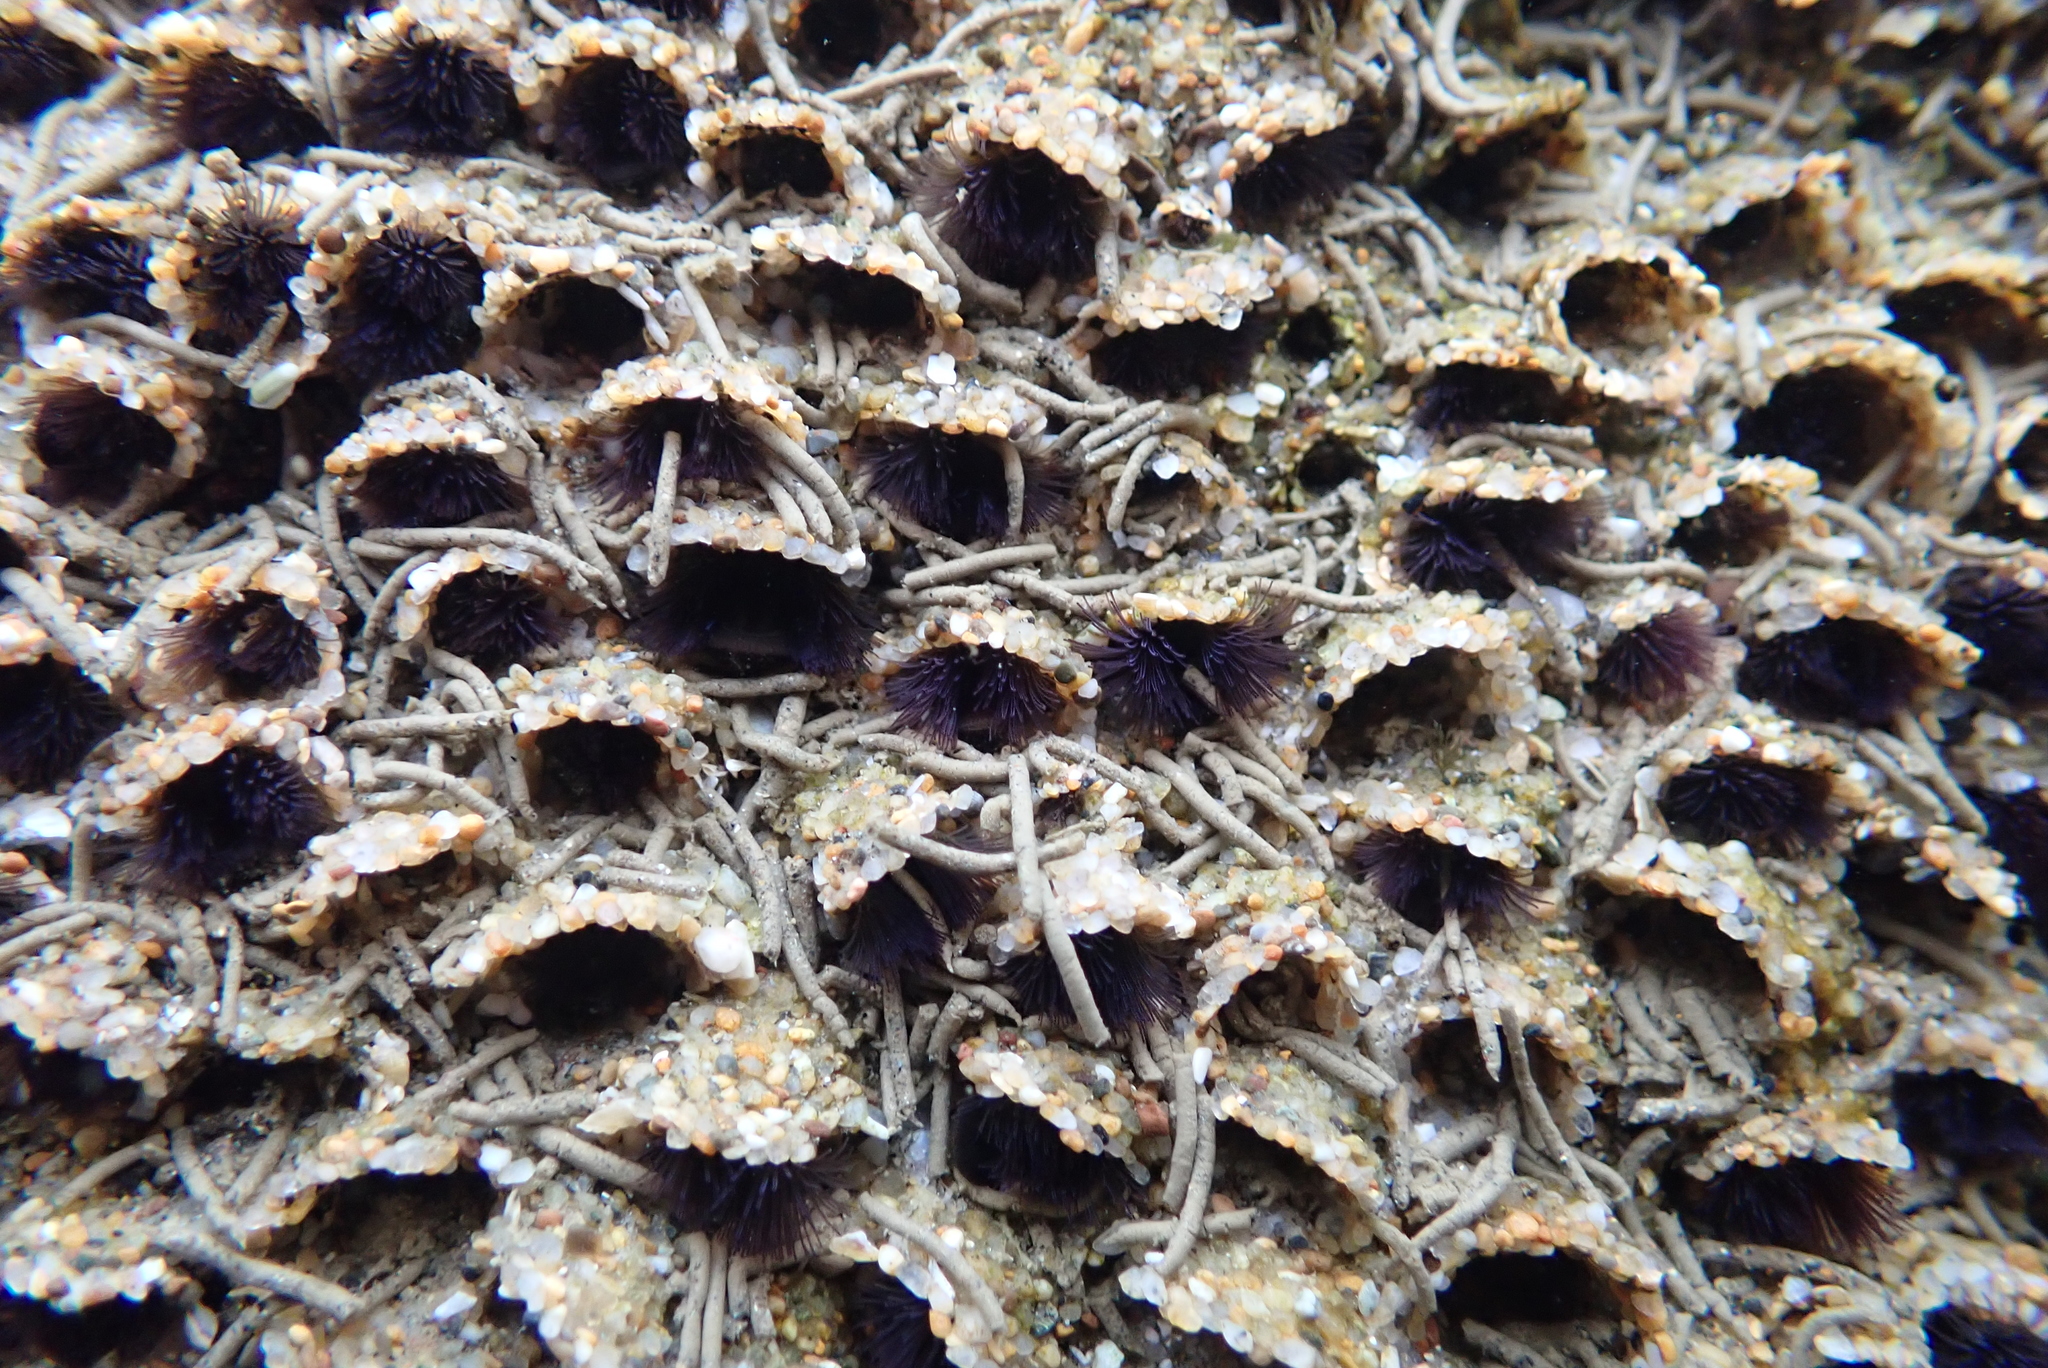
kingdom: Animalia
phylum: Annelida
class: Polychaeta
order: Sabellida
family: Sabellariidae
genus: Phragmatopoma
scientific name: Phragmatopoma californica
